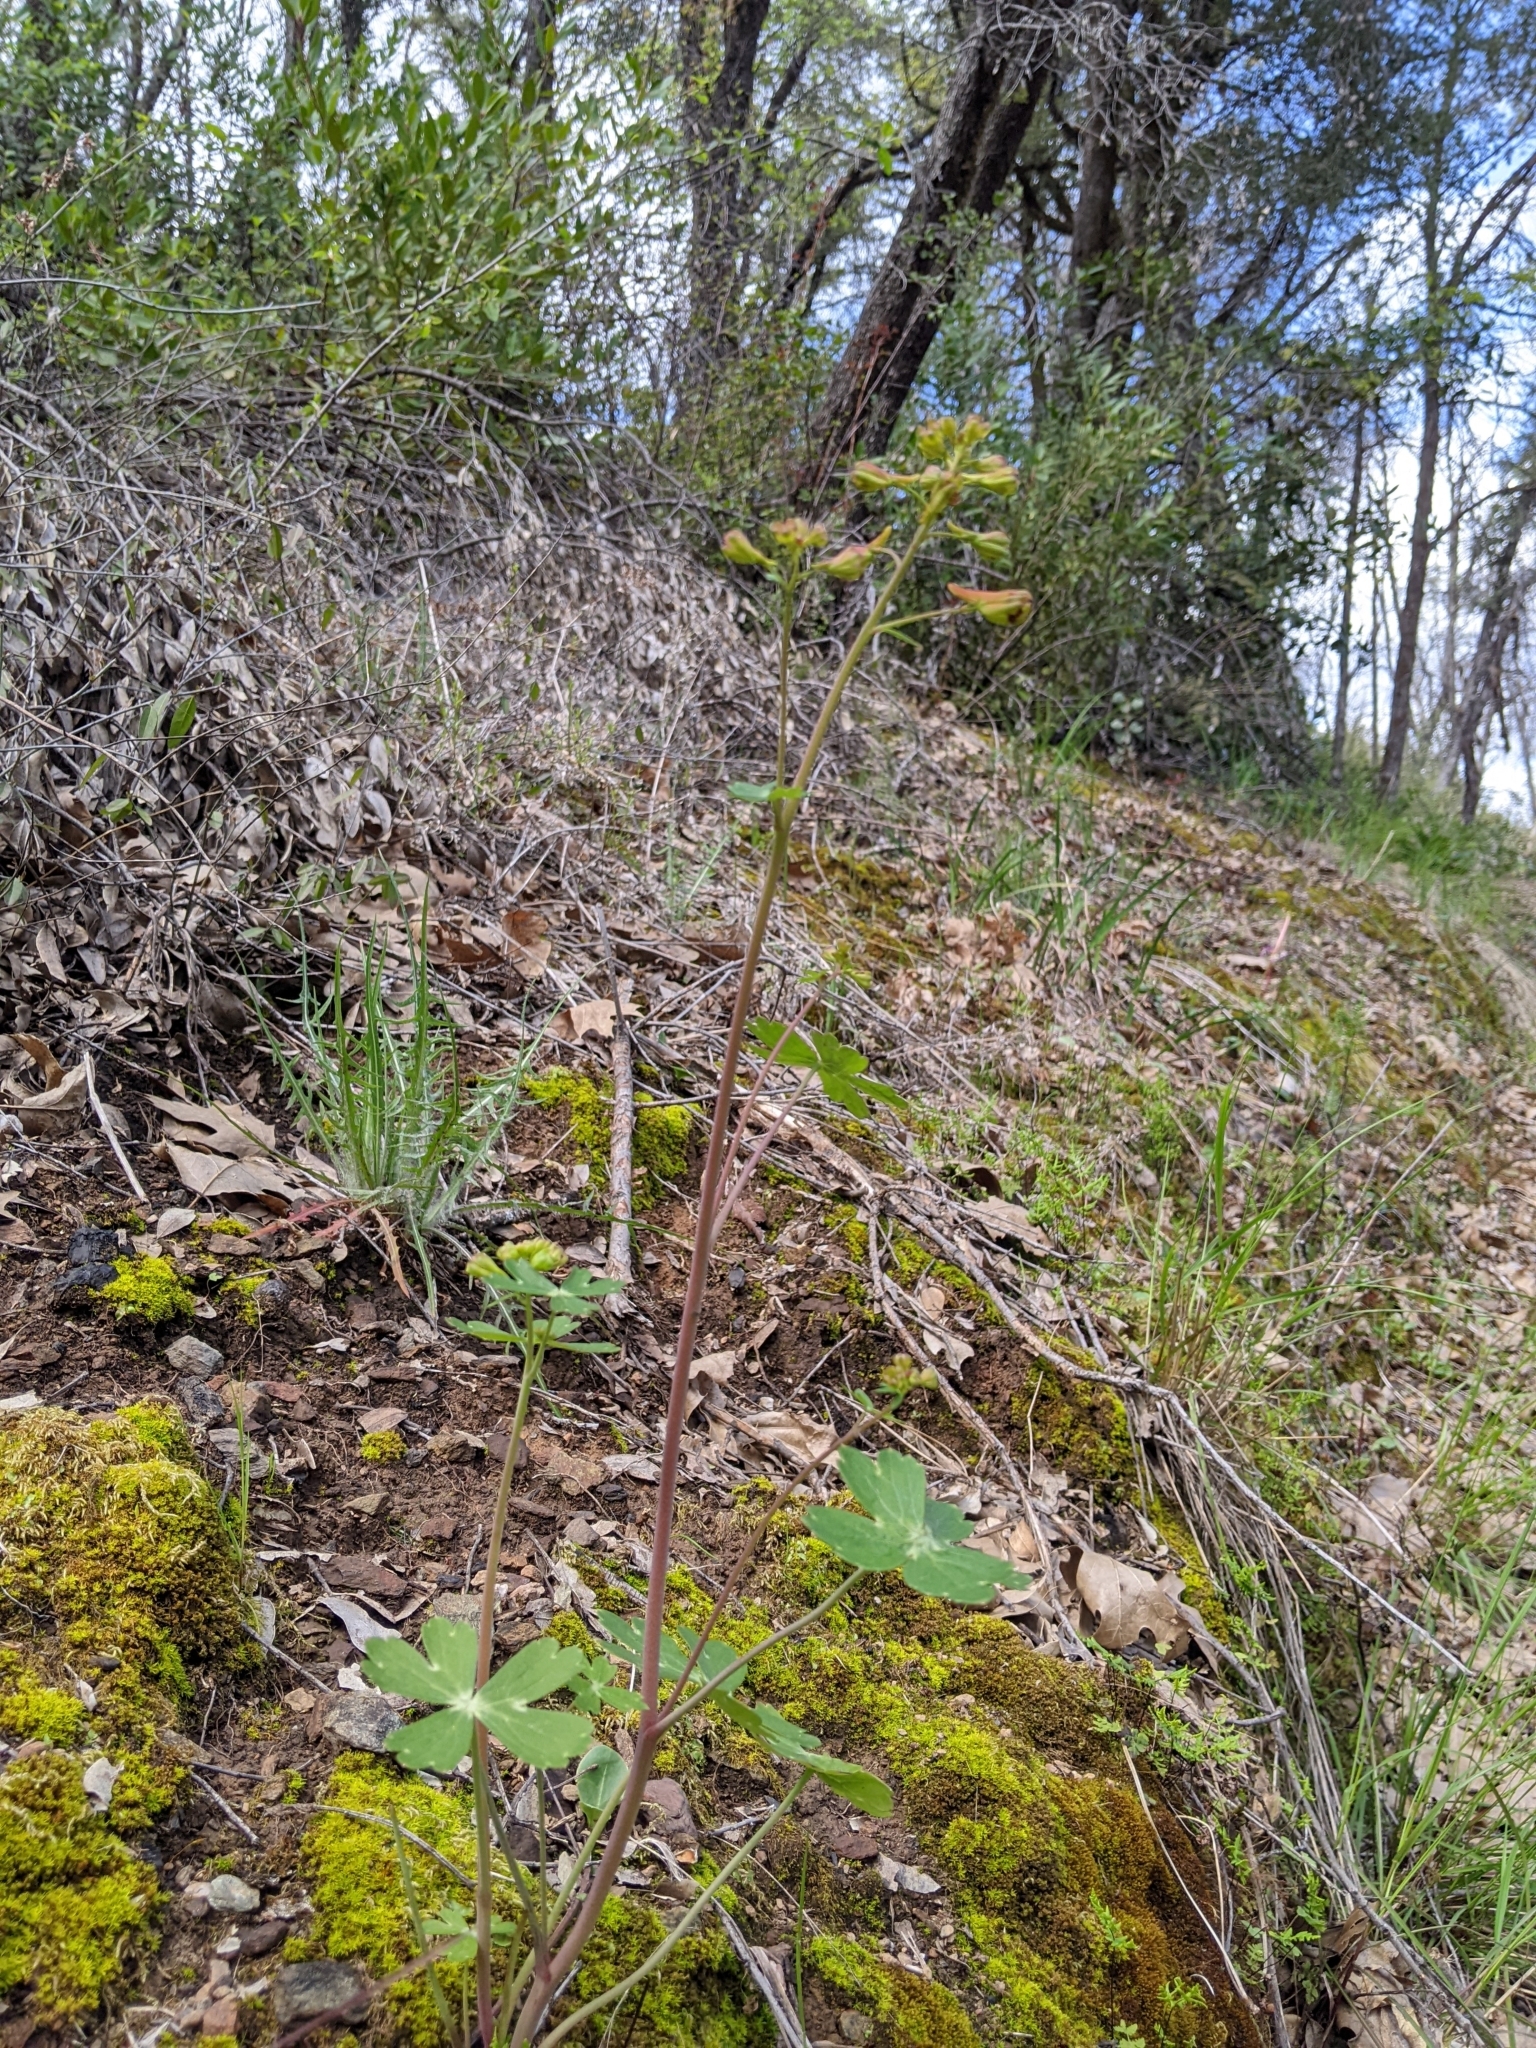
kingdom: Plantae
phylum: Tracheophyta
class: Magnoliopsida
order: Ranunculales
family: Ranunculaceae
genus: Delphinium
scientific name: Delphinium nudicaule
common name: Red larkspur
